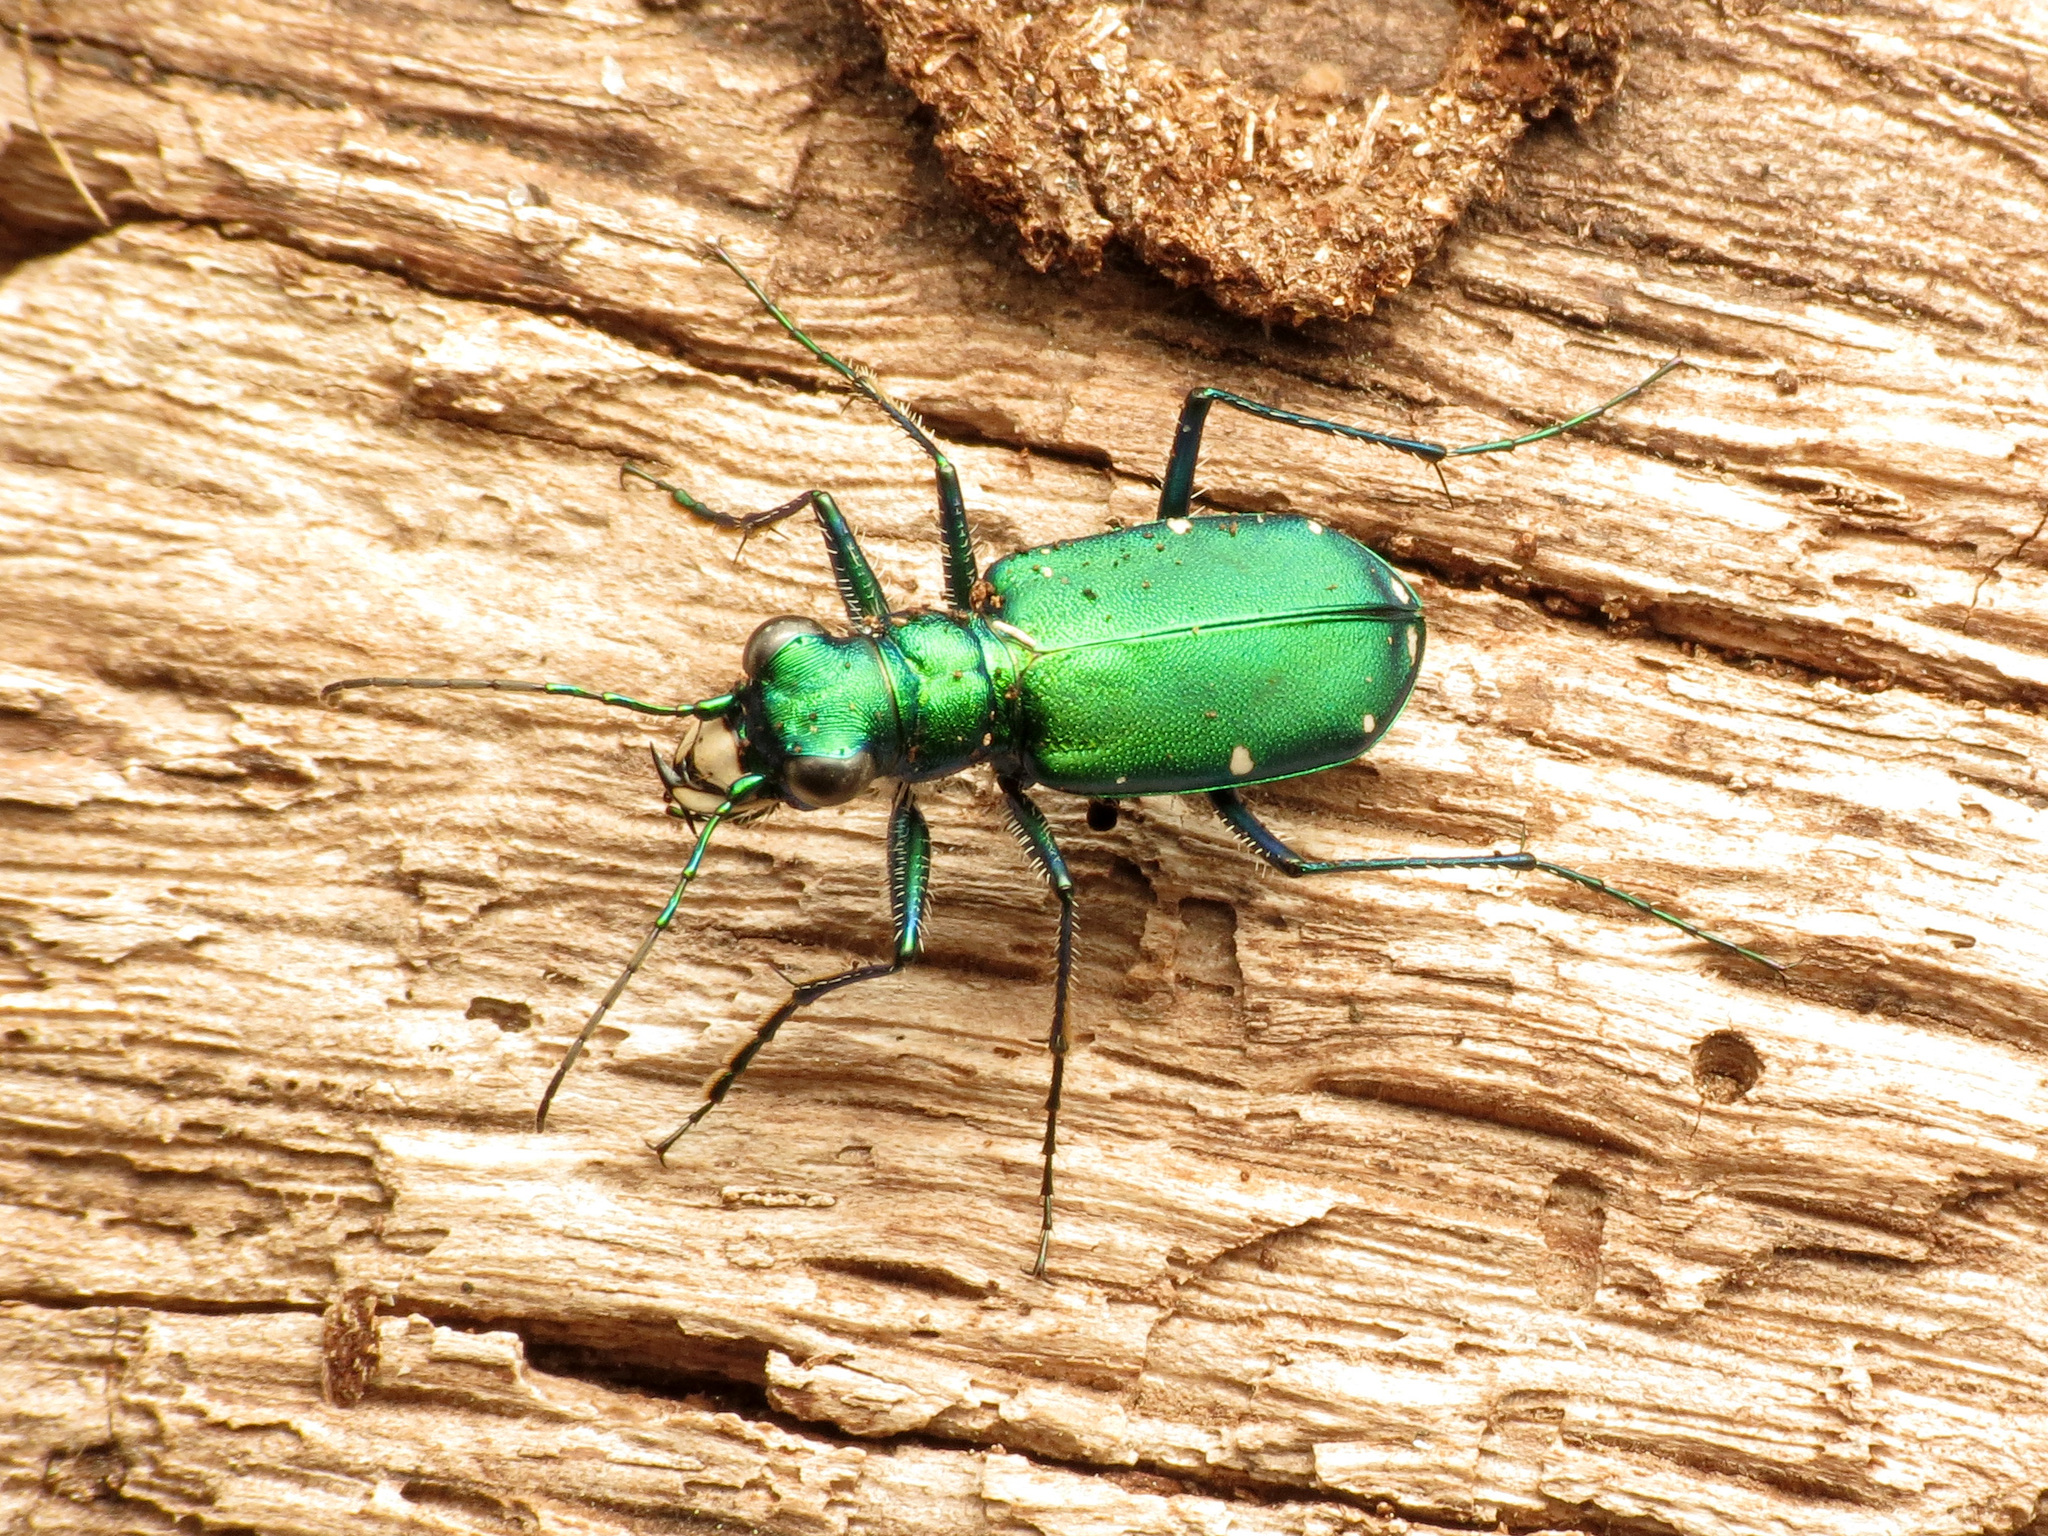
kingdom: Animalia
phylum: Arthropoda
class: Insecta
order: Coleoptera
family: Carabidae
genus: Cicindela
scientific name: Cicindela sexguttata
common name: Six-spotted tiger beetle
